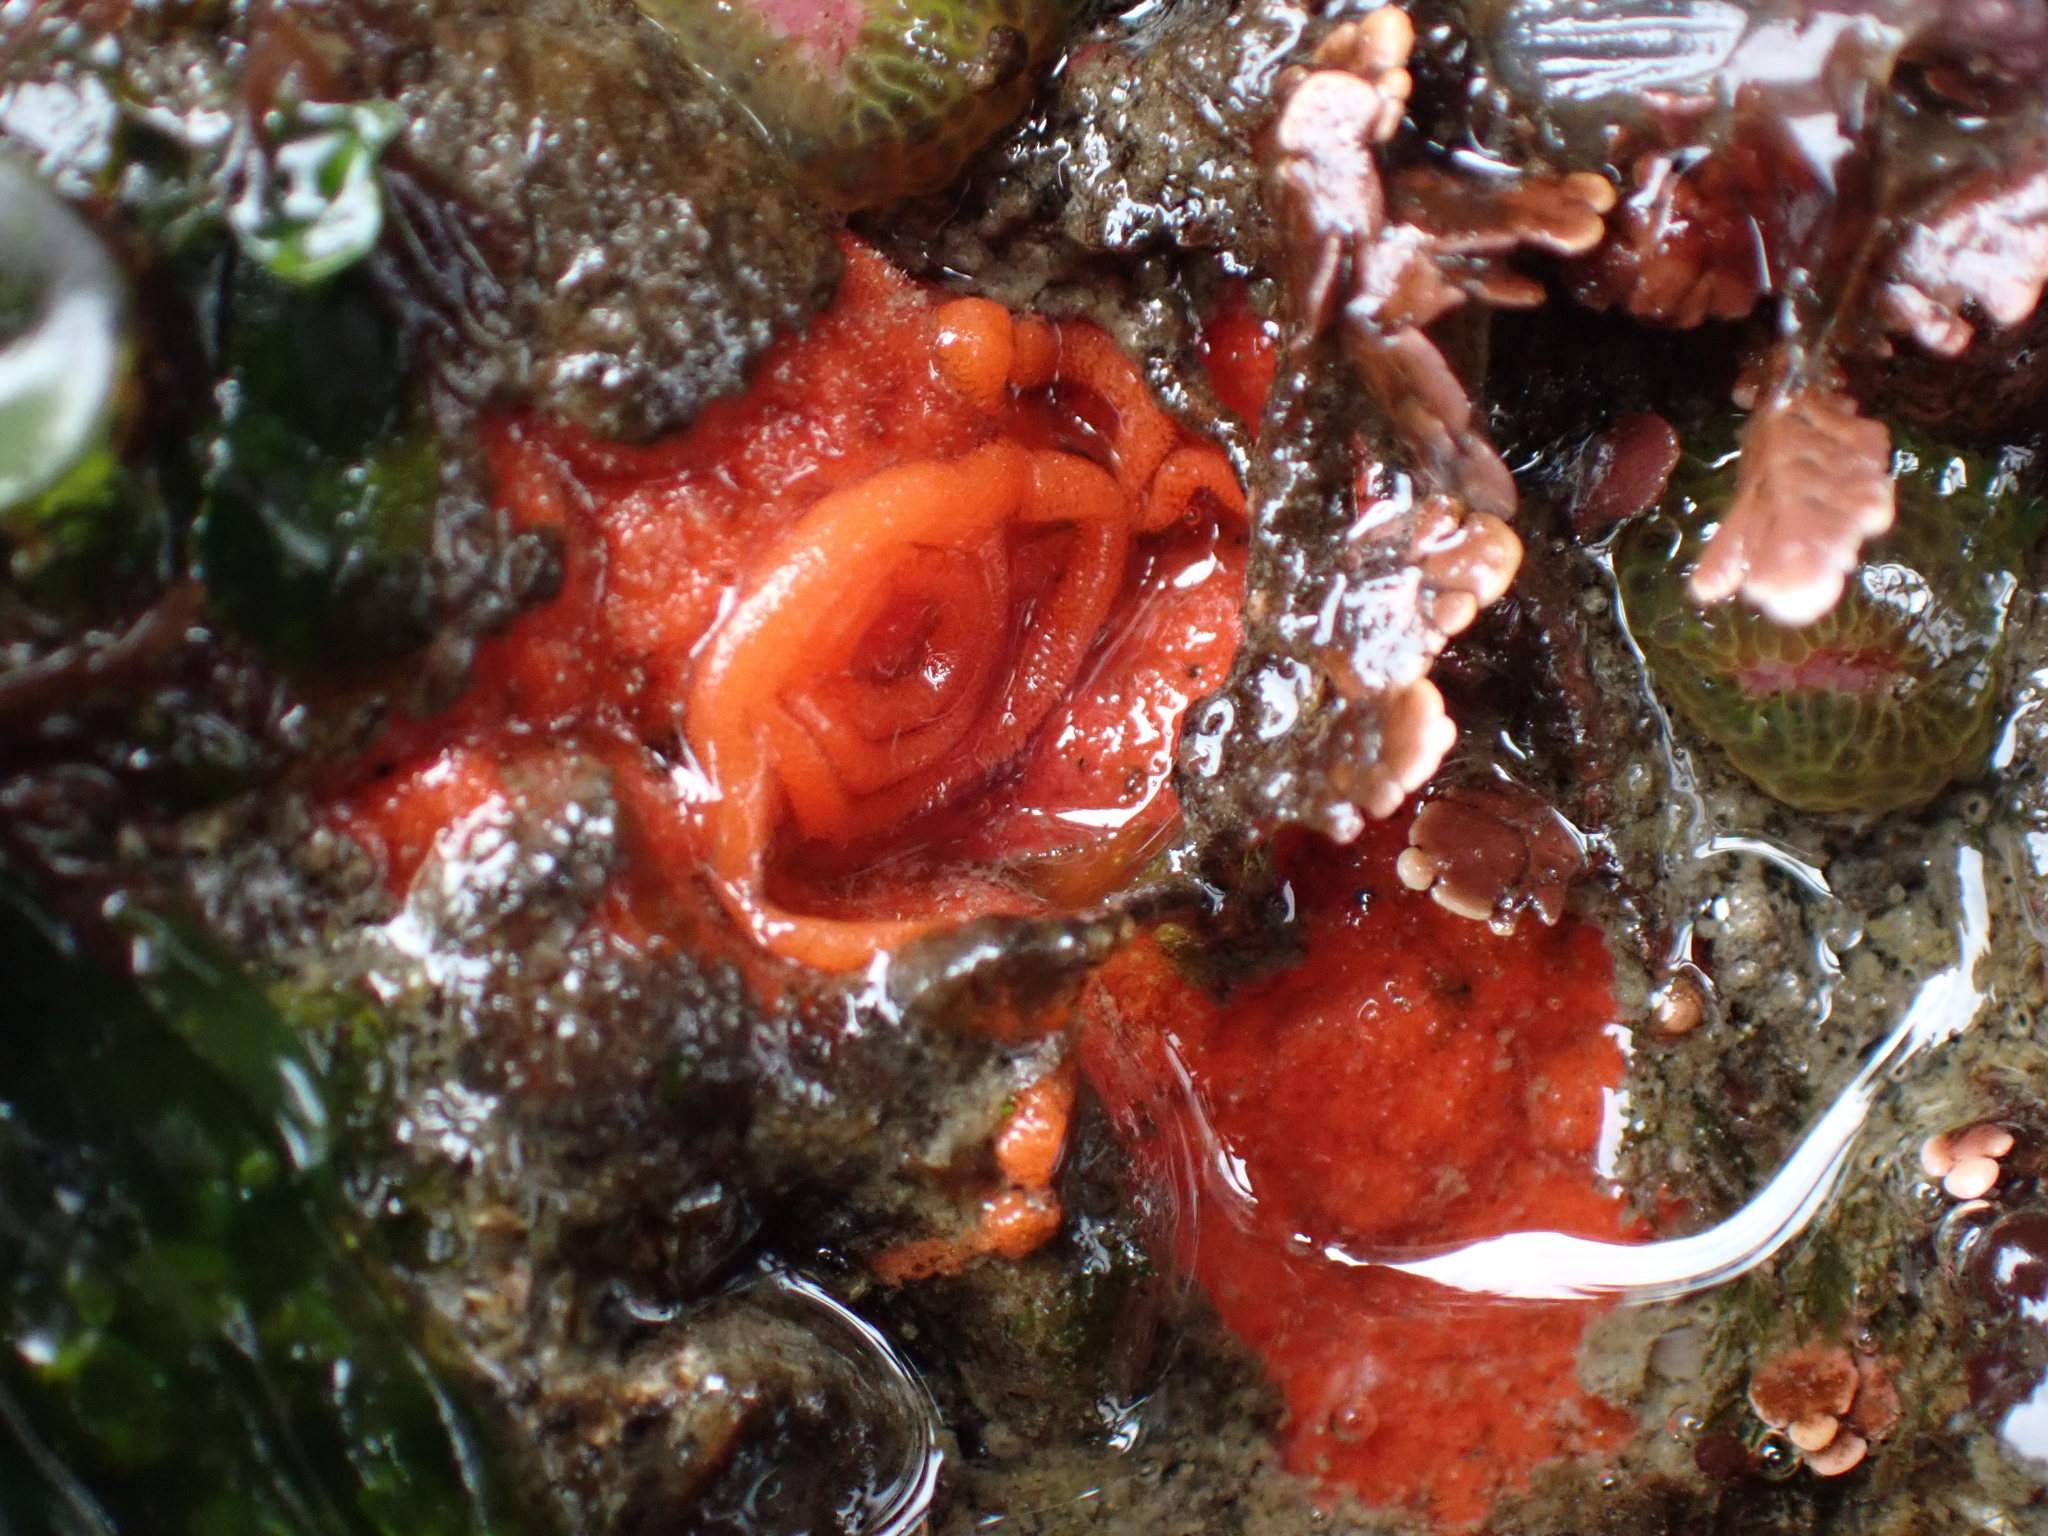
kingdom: Animalia
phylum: Mollusca
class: Gastropoda
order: Nudibranchia
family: Discodorididae
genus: Rostanga
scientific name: Rostanga pulchra
